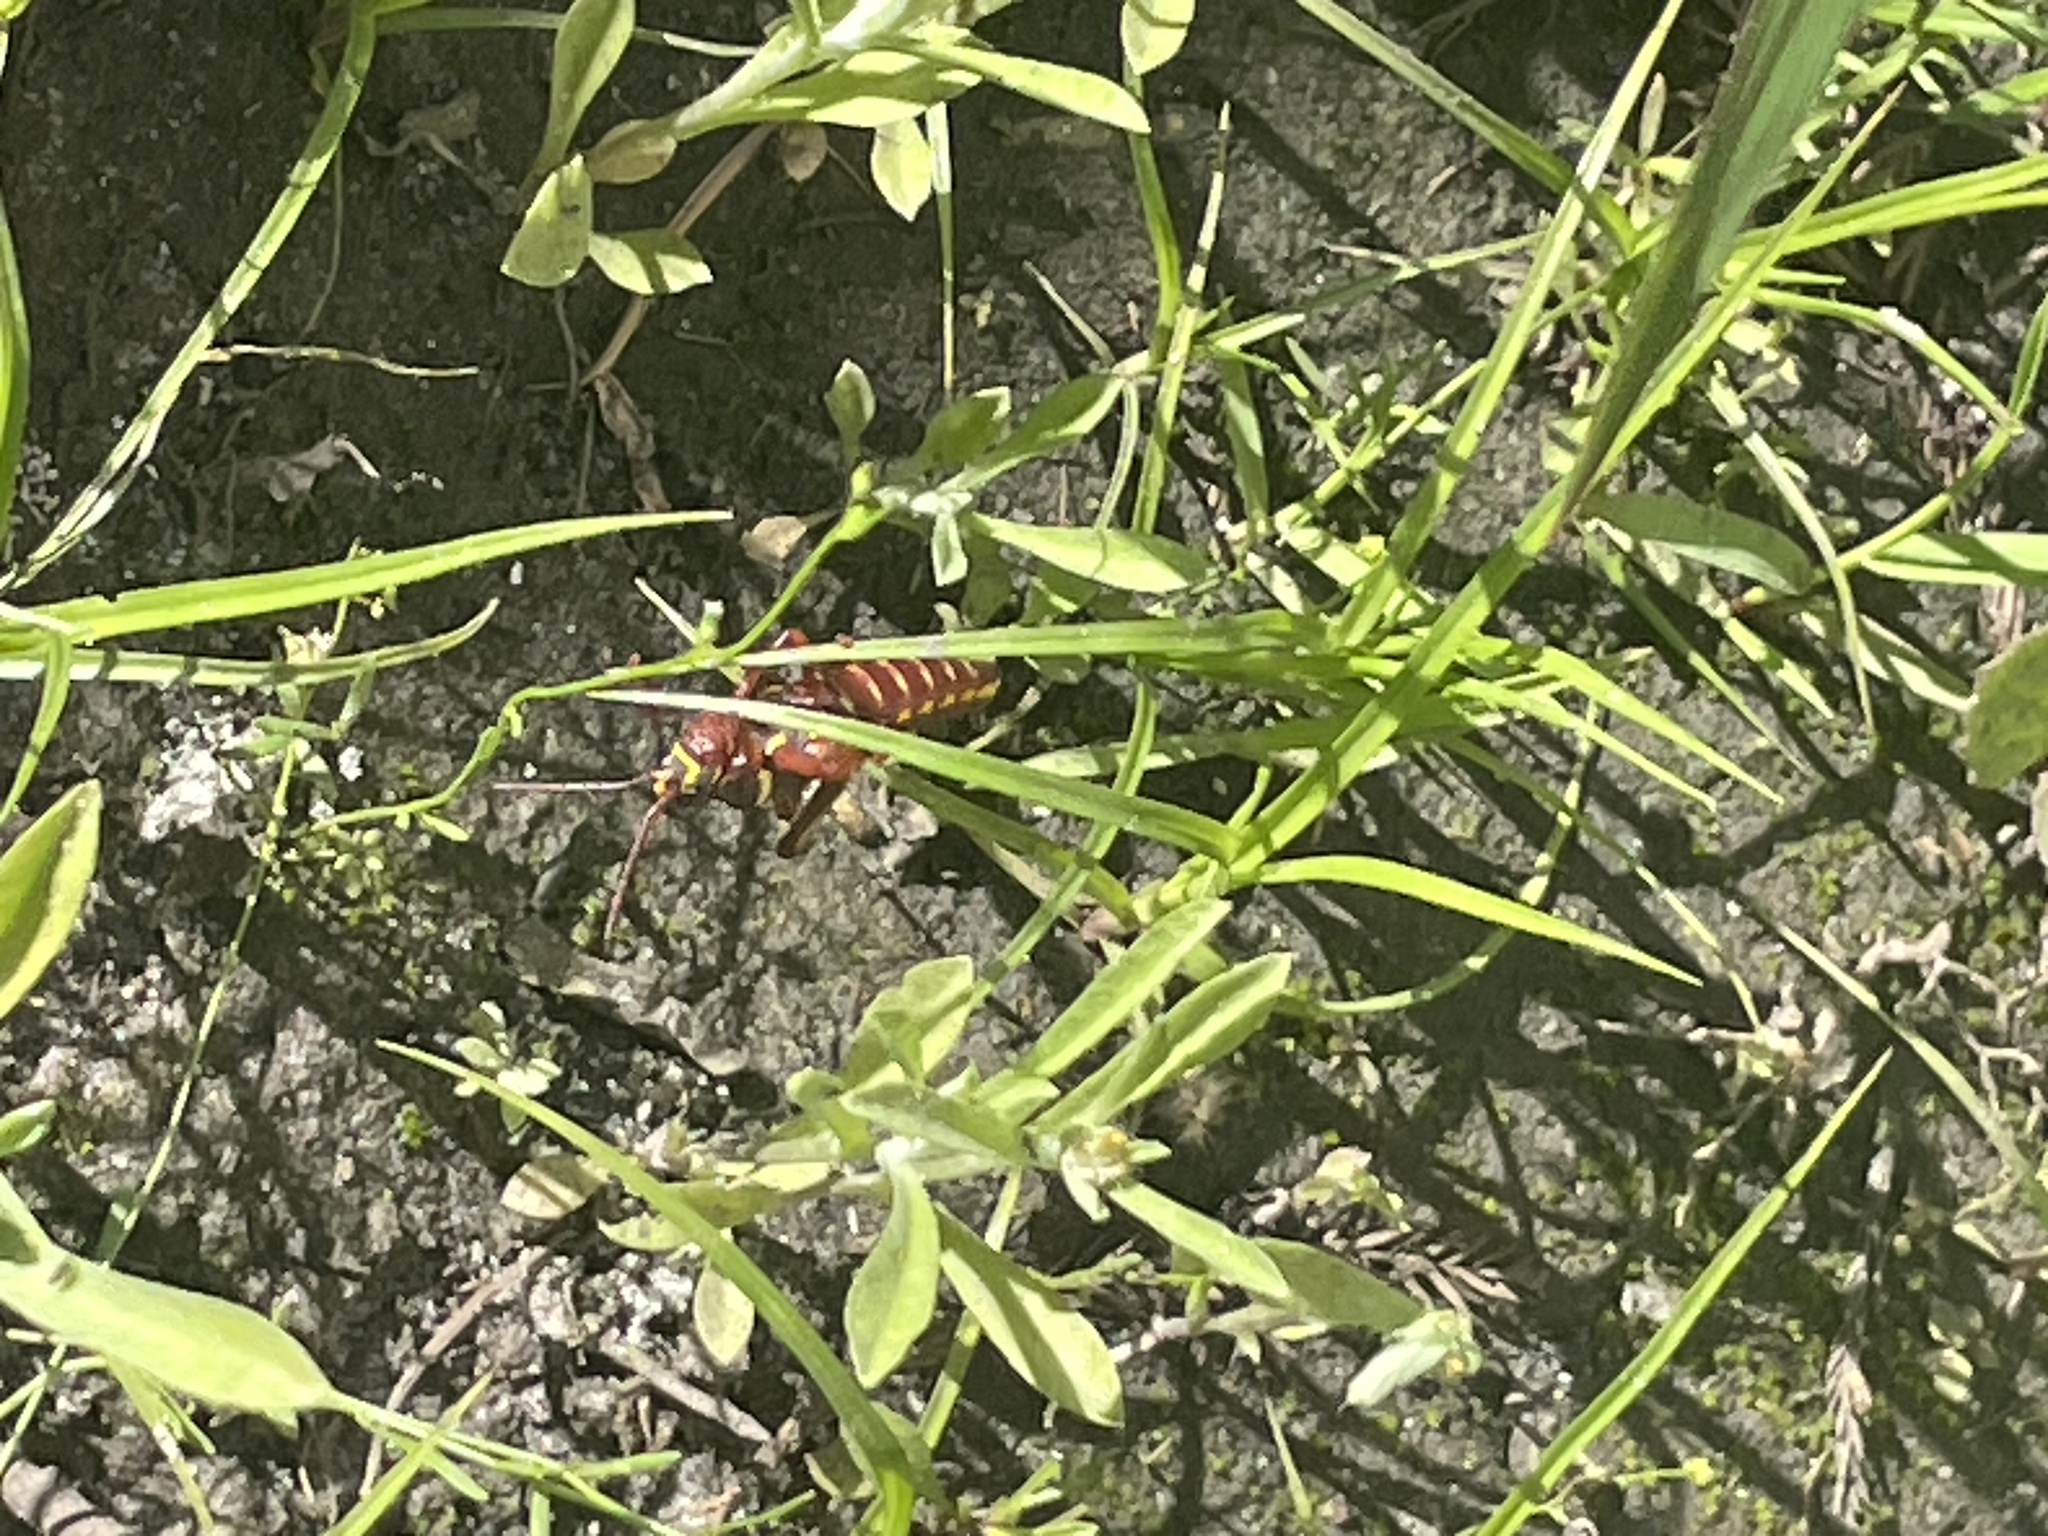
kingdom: Animalia
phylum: Arthropoda
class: Insecta
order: Orthoptera
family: Romaleidae
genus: Romalea
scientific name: Romalea microptera
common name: Eastern lubber grasshopper
